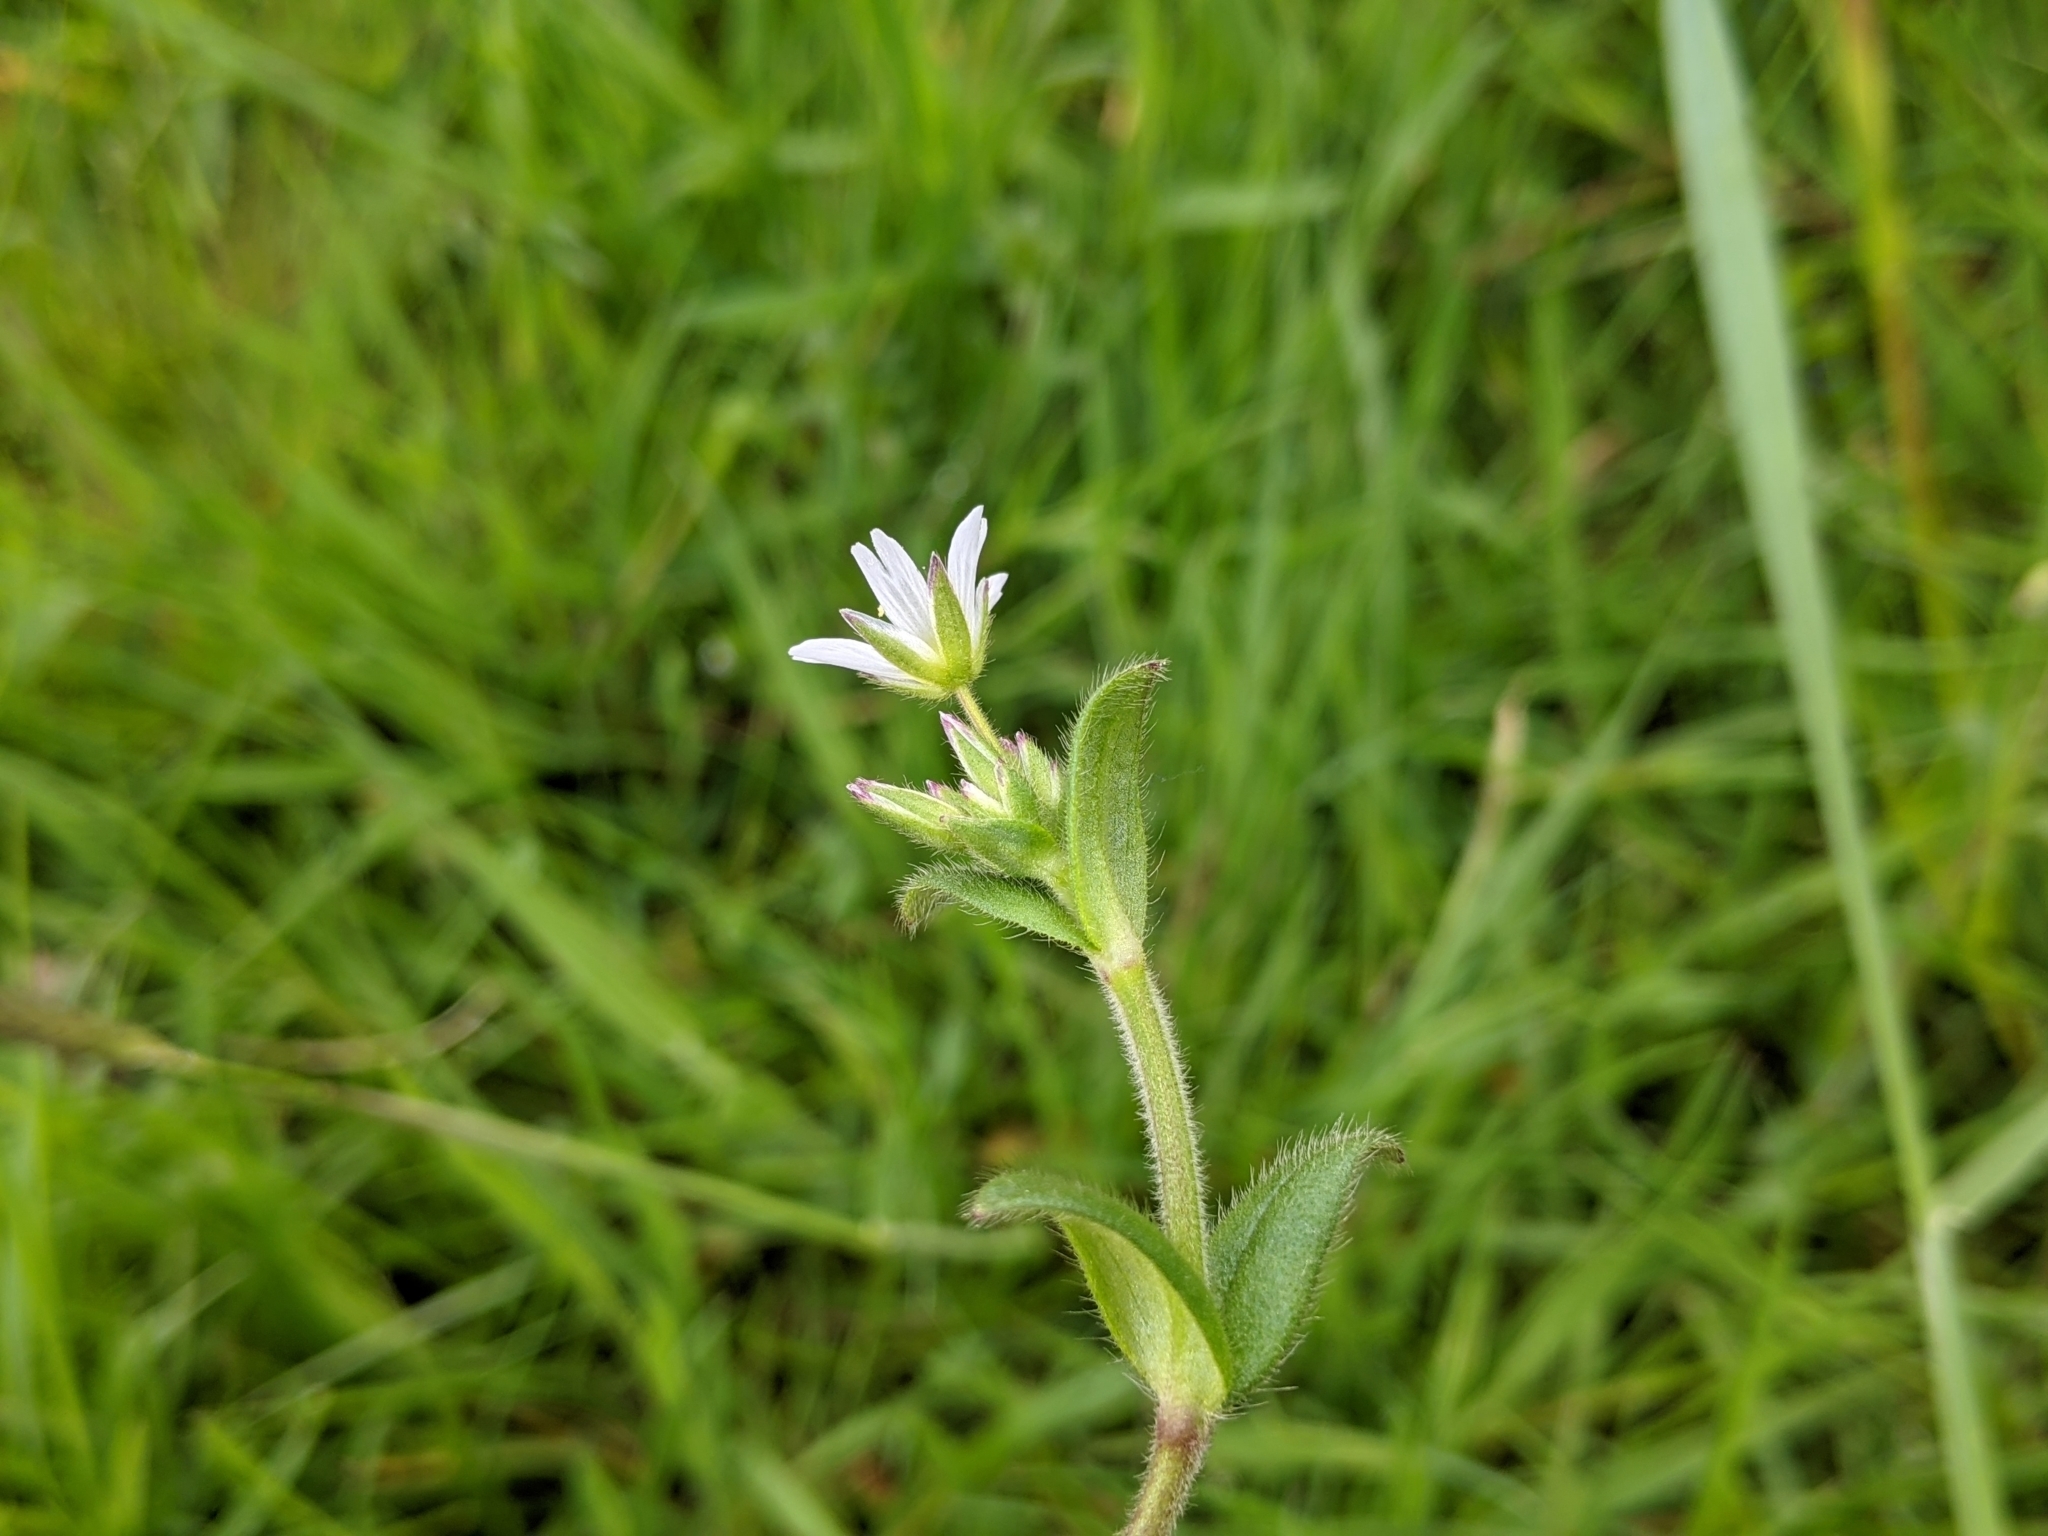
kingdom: Plantae
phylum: Tracheophyta
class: Magnoliopsida
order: Caryophyllales
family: Caryophyllaceae
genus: Cerastium
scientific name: Cerastium fontanum
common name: Common mouse-ear
